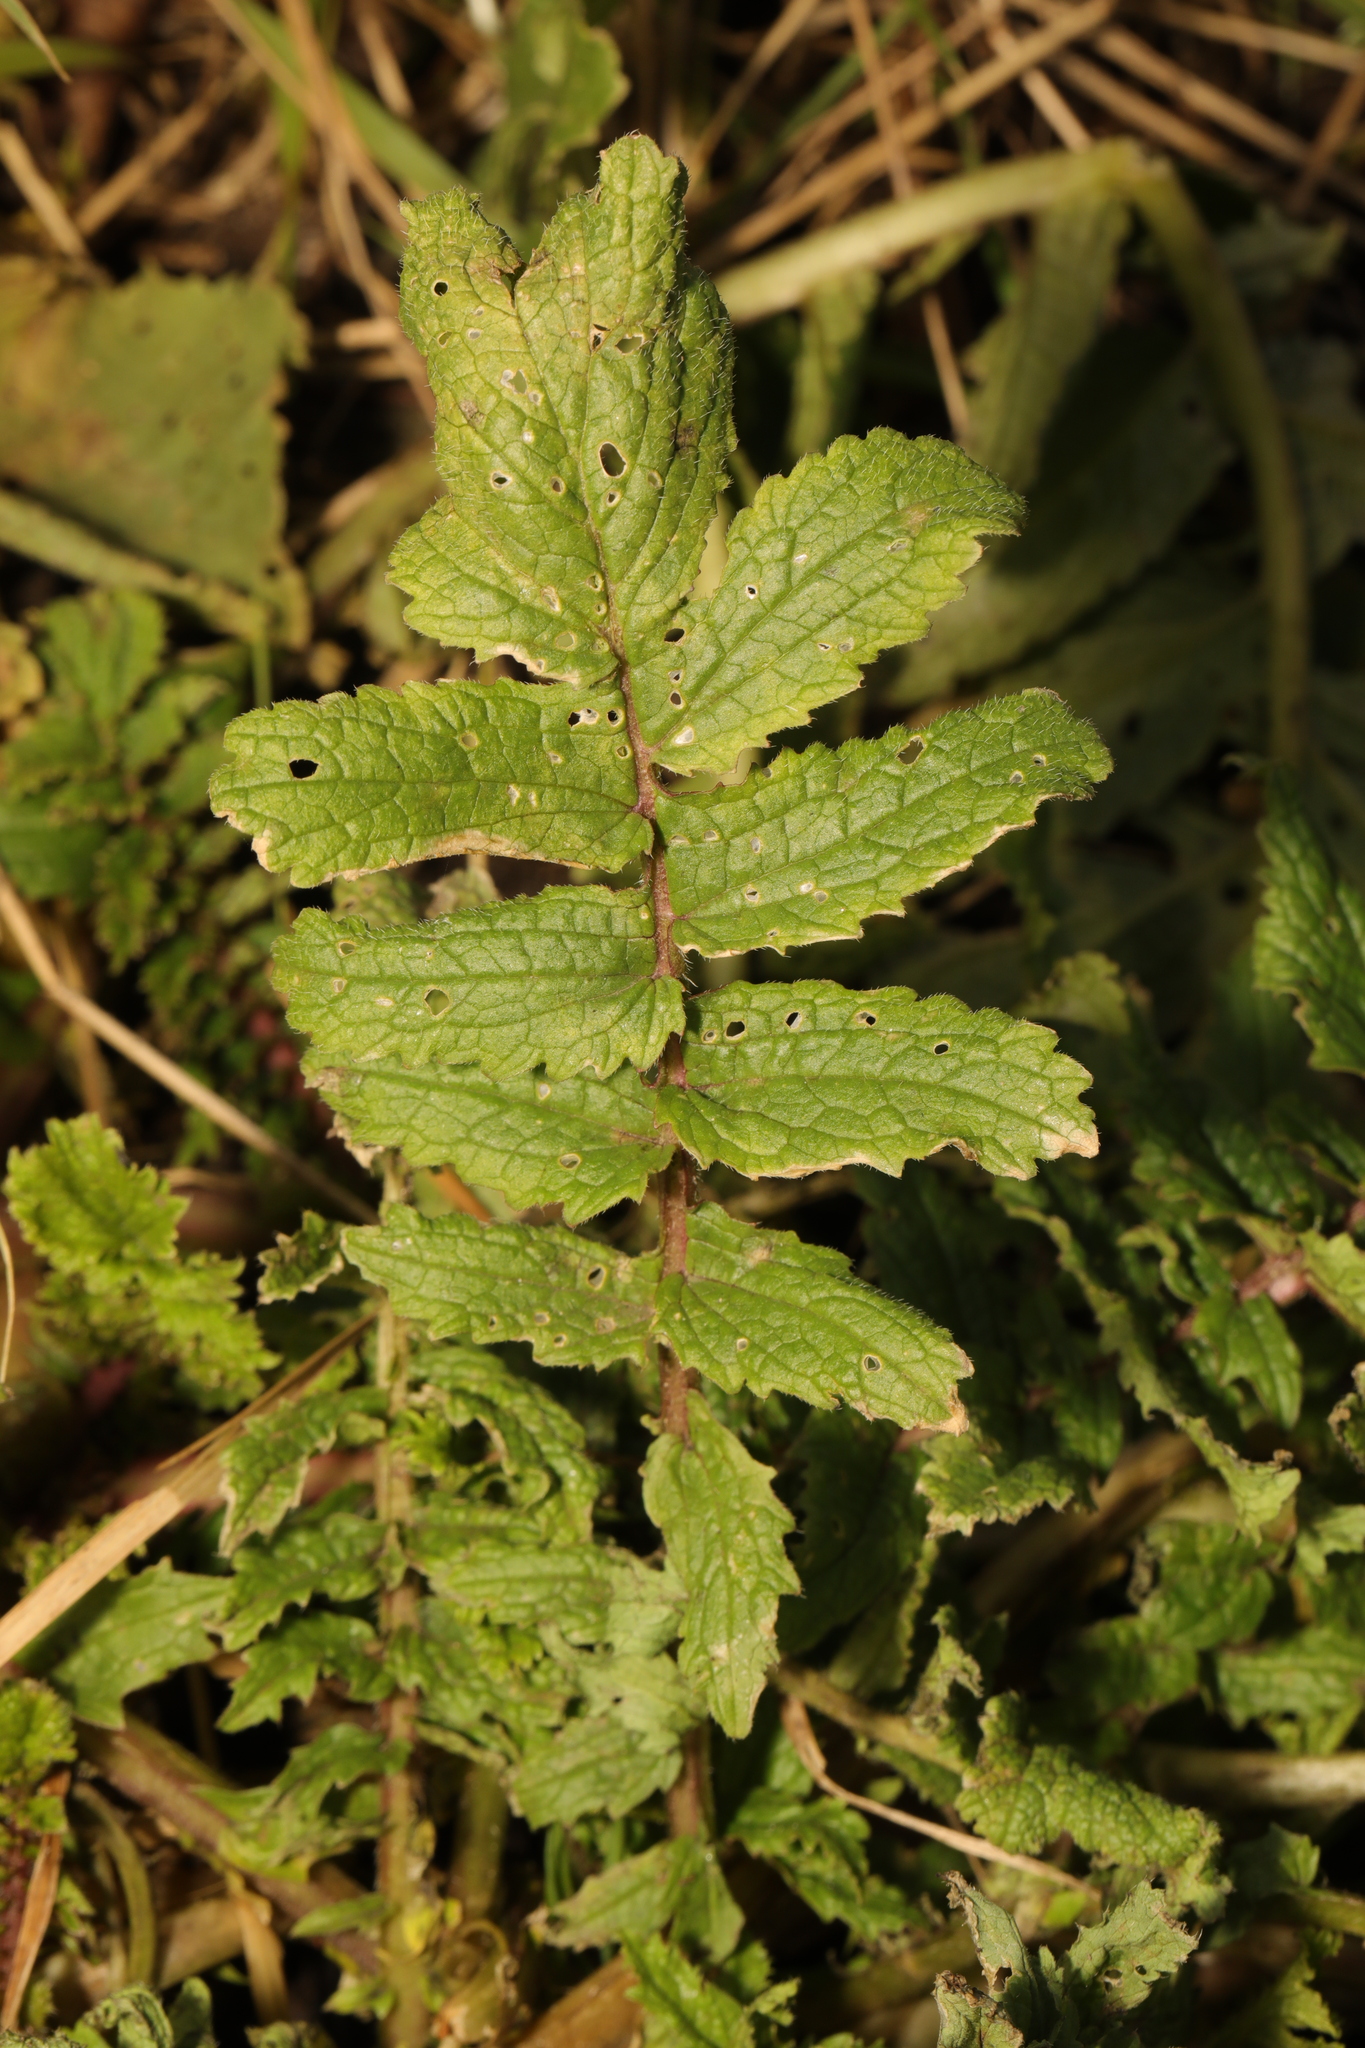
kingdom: Plantae
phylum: Tracheophyta
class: Magnoliopsida
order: Brassicales
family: Brassicaceae
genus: Raphanus
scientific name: Raphanus raphanistrum
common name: Wild radish
